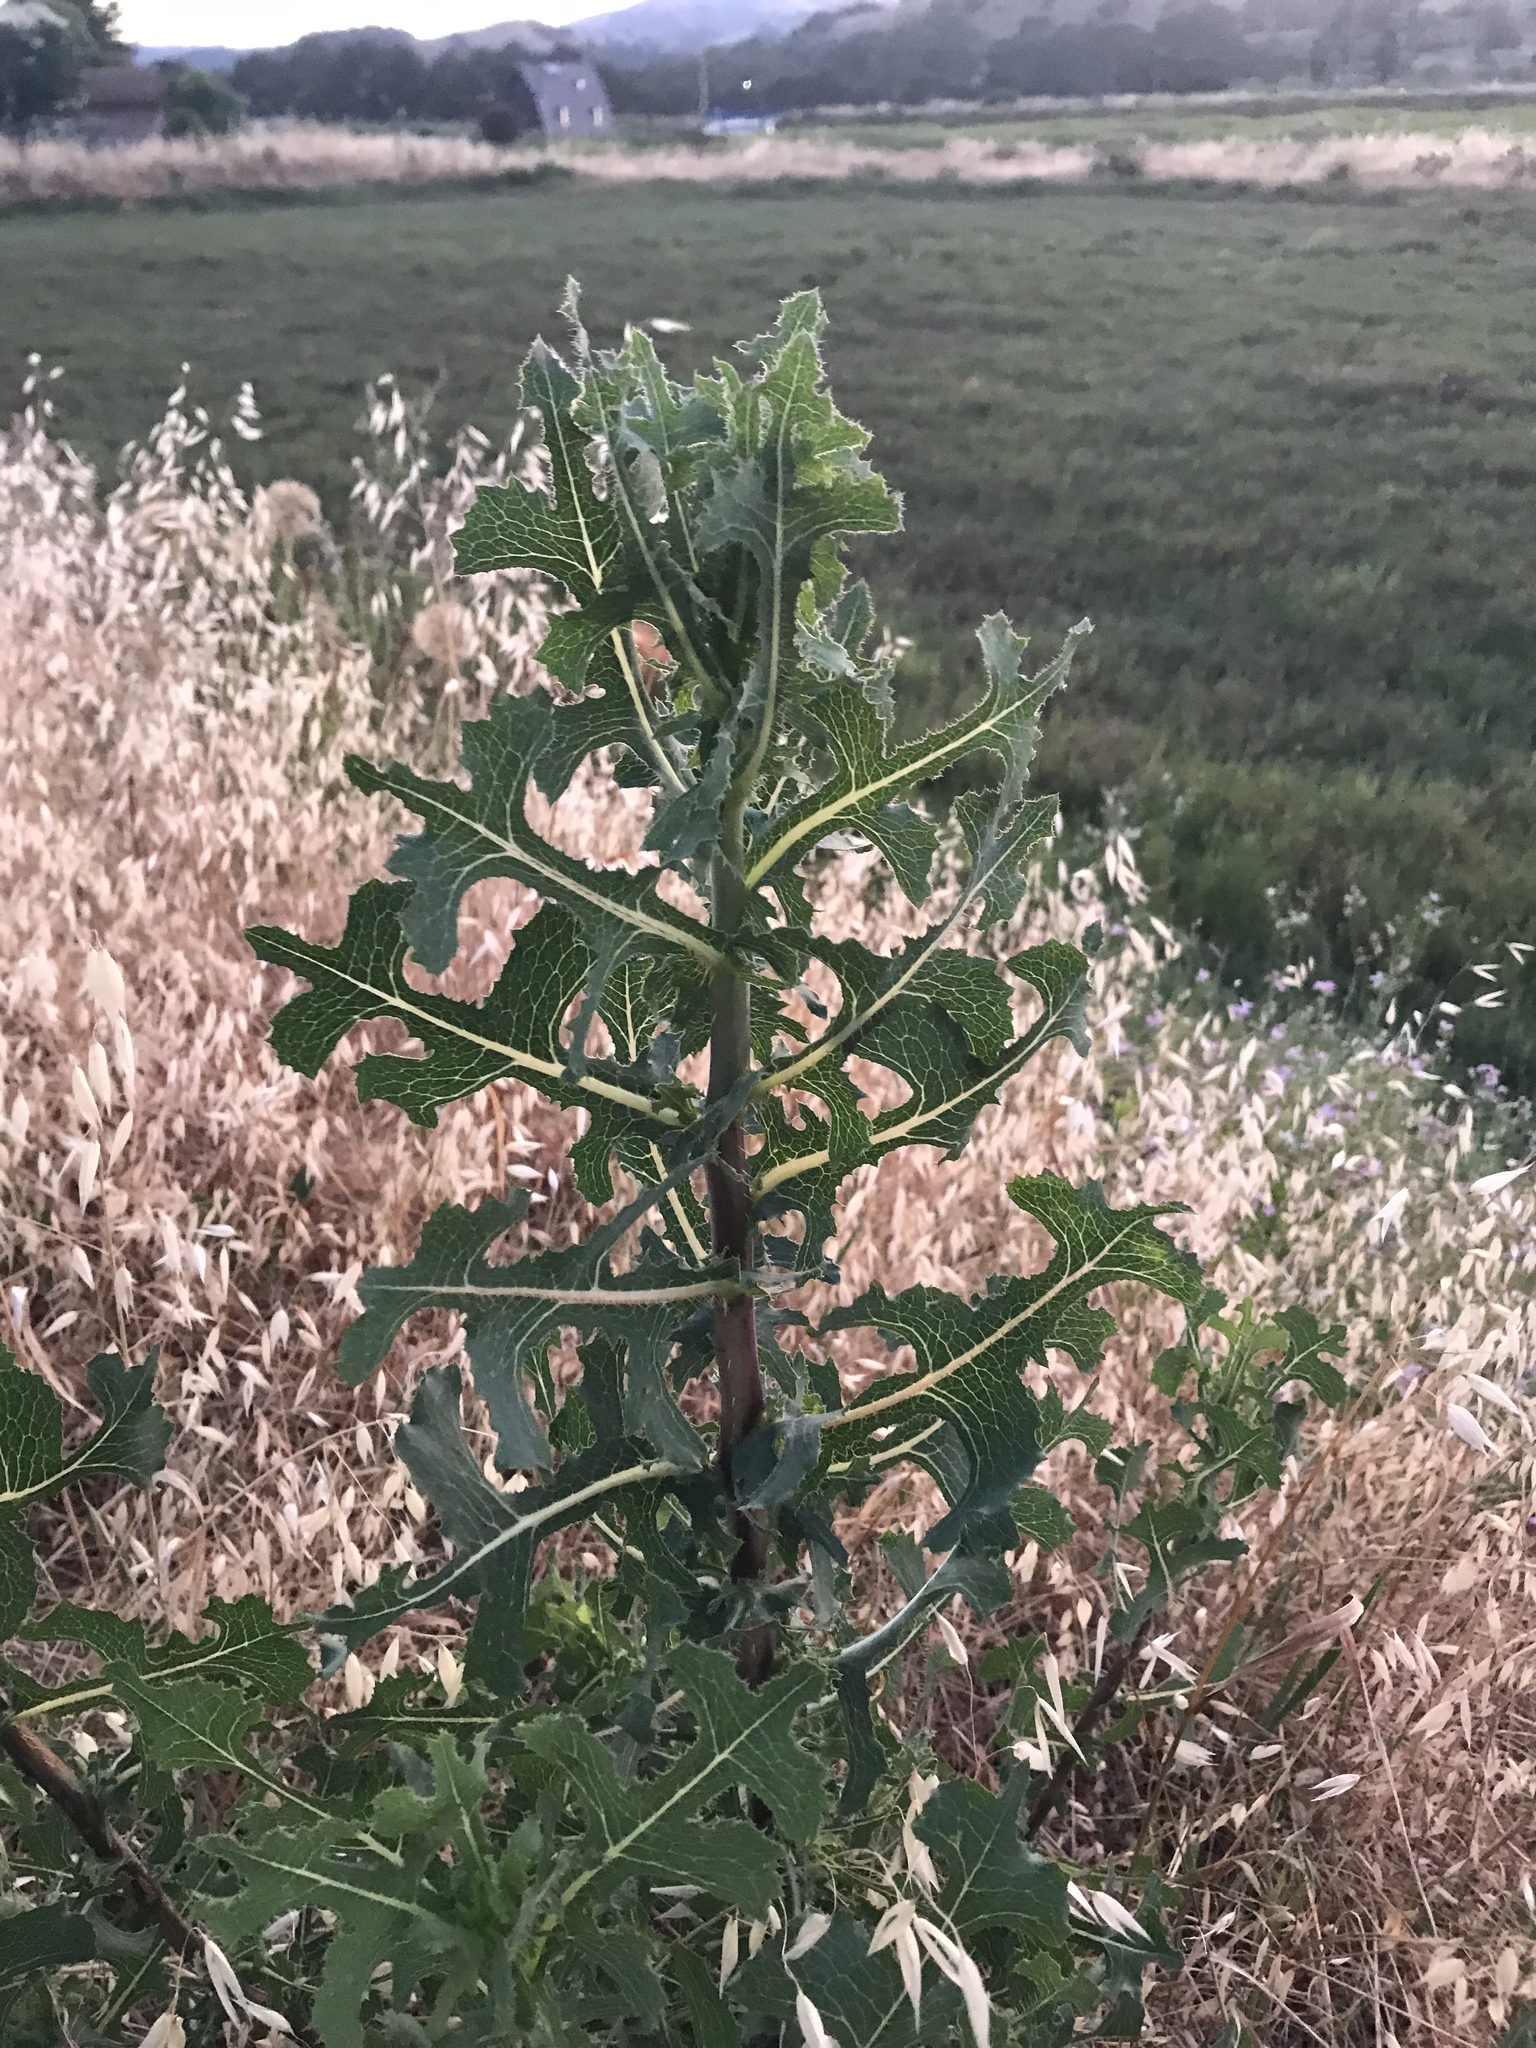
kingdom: Plantae
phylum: Tracheophyta
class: Magnoliopsida
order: Asterales
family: Asteraceae
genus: Lactuca
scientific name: Lactuca serriola
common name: Prickly lettuce
